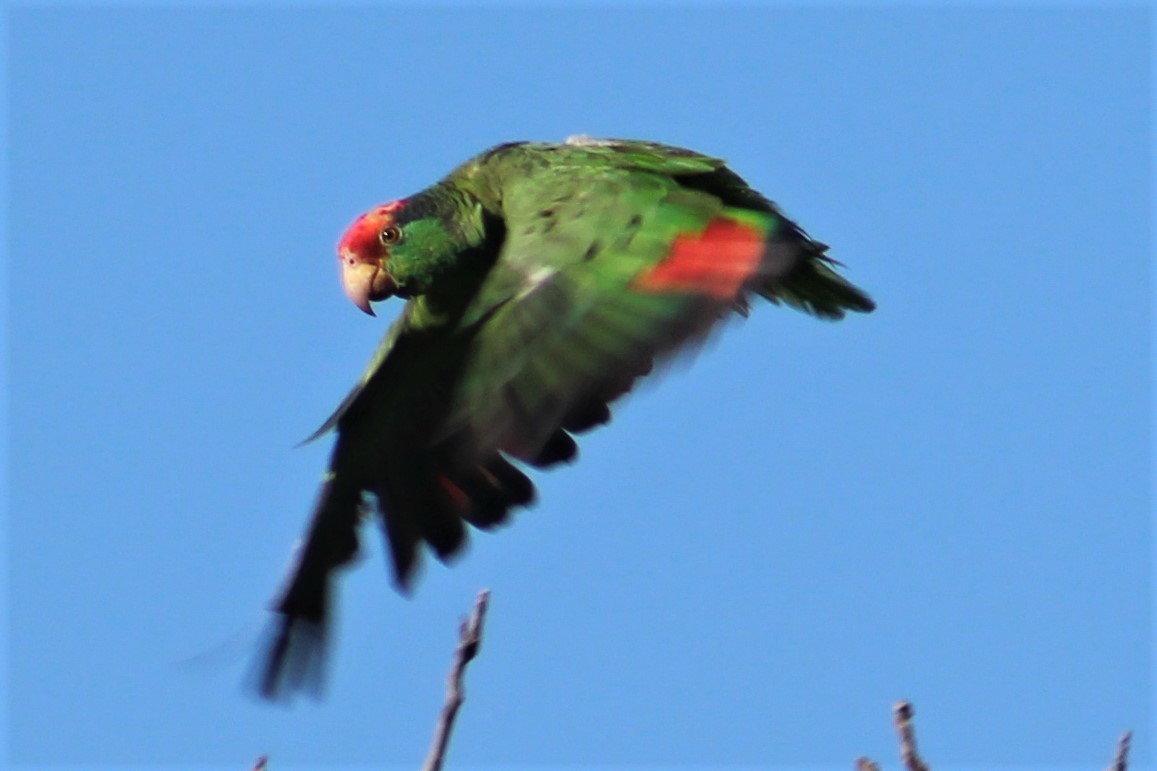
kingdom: Animalia
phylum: Chordata
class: Aves
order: Psittaciformes
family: Psittacidae
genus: Amazona
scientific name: Amazona viridigenalis
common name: Red-crowned amazon
